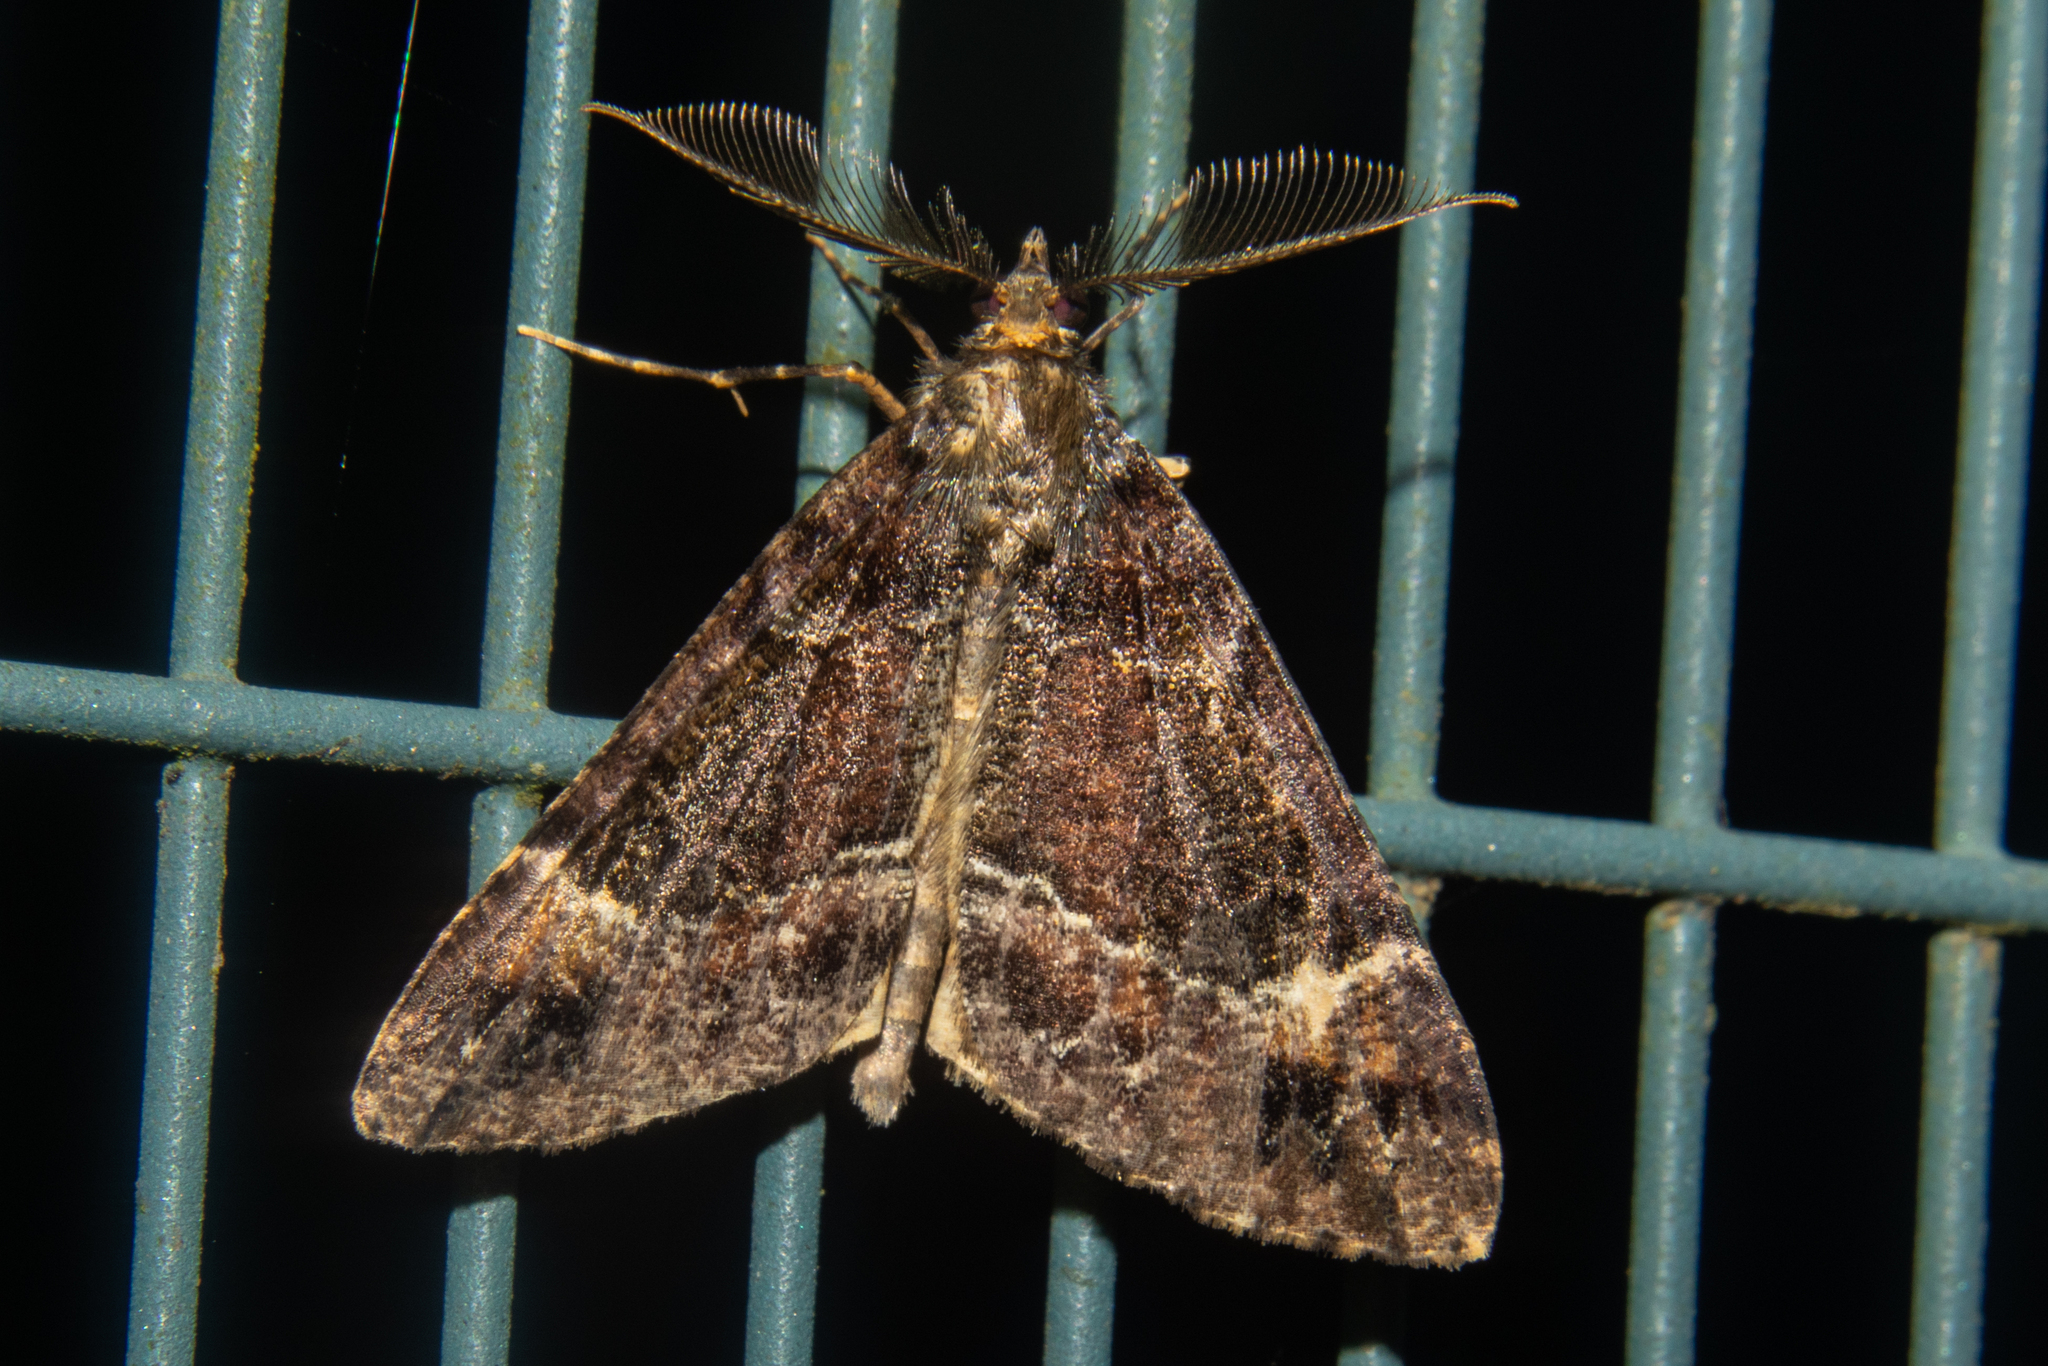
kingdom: Animalia
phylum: Arthropoda
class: Insecta
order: Lepidoptera
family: Geometridae
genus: Pseudocoremia
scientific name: Pseudocoremia productata
